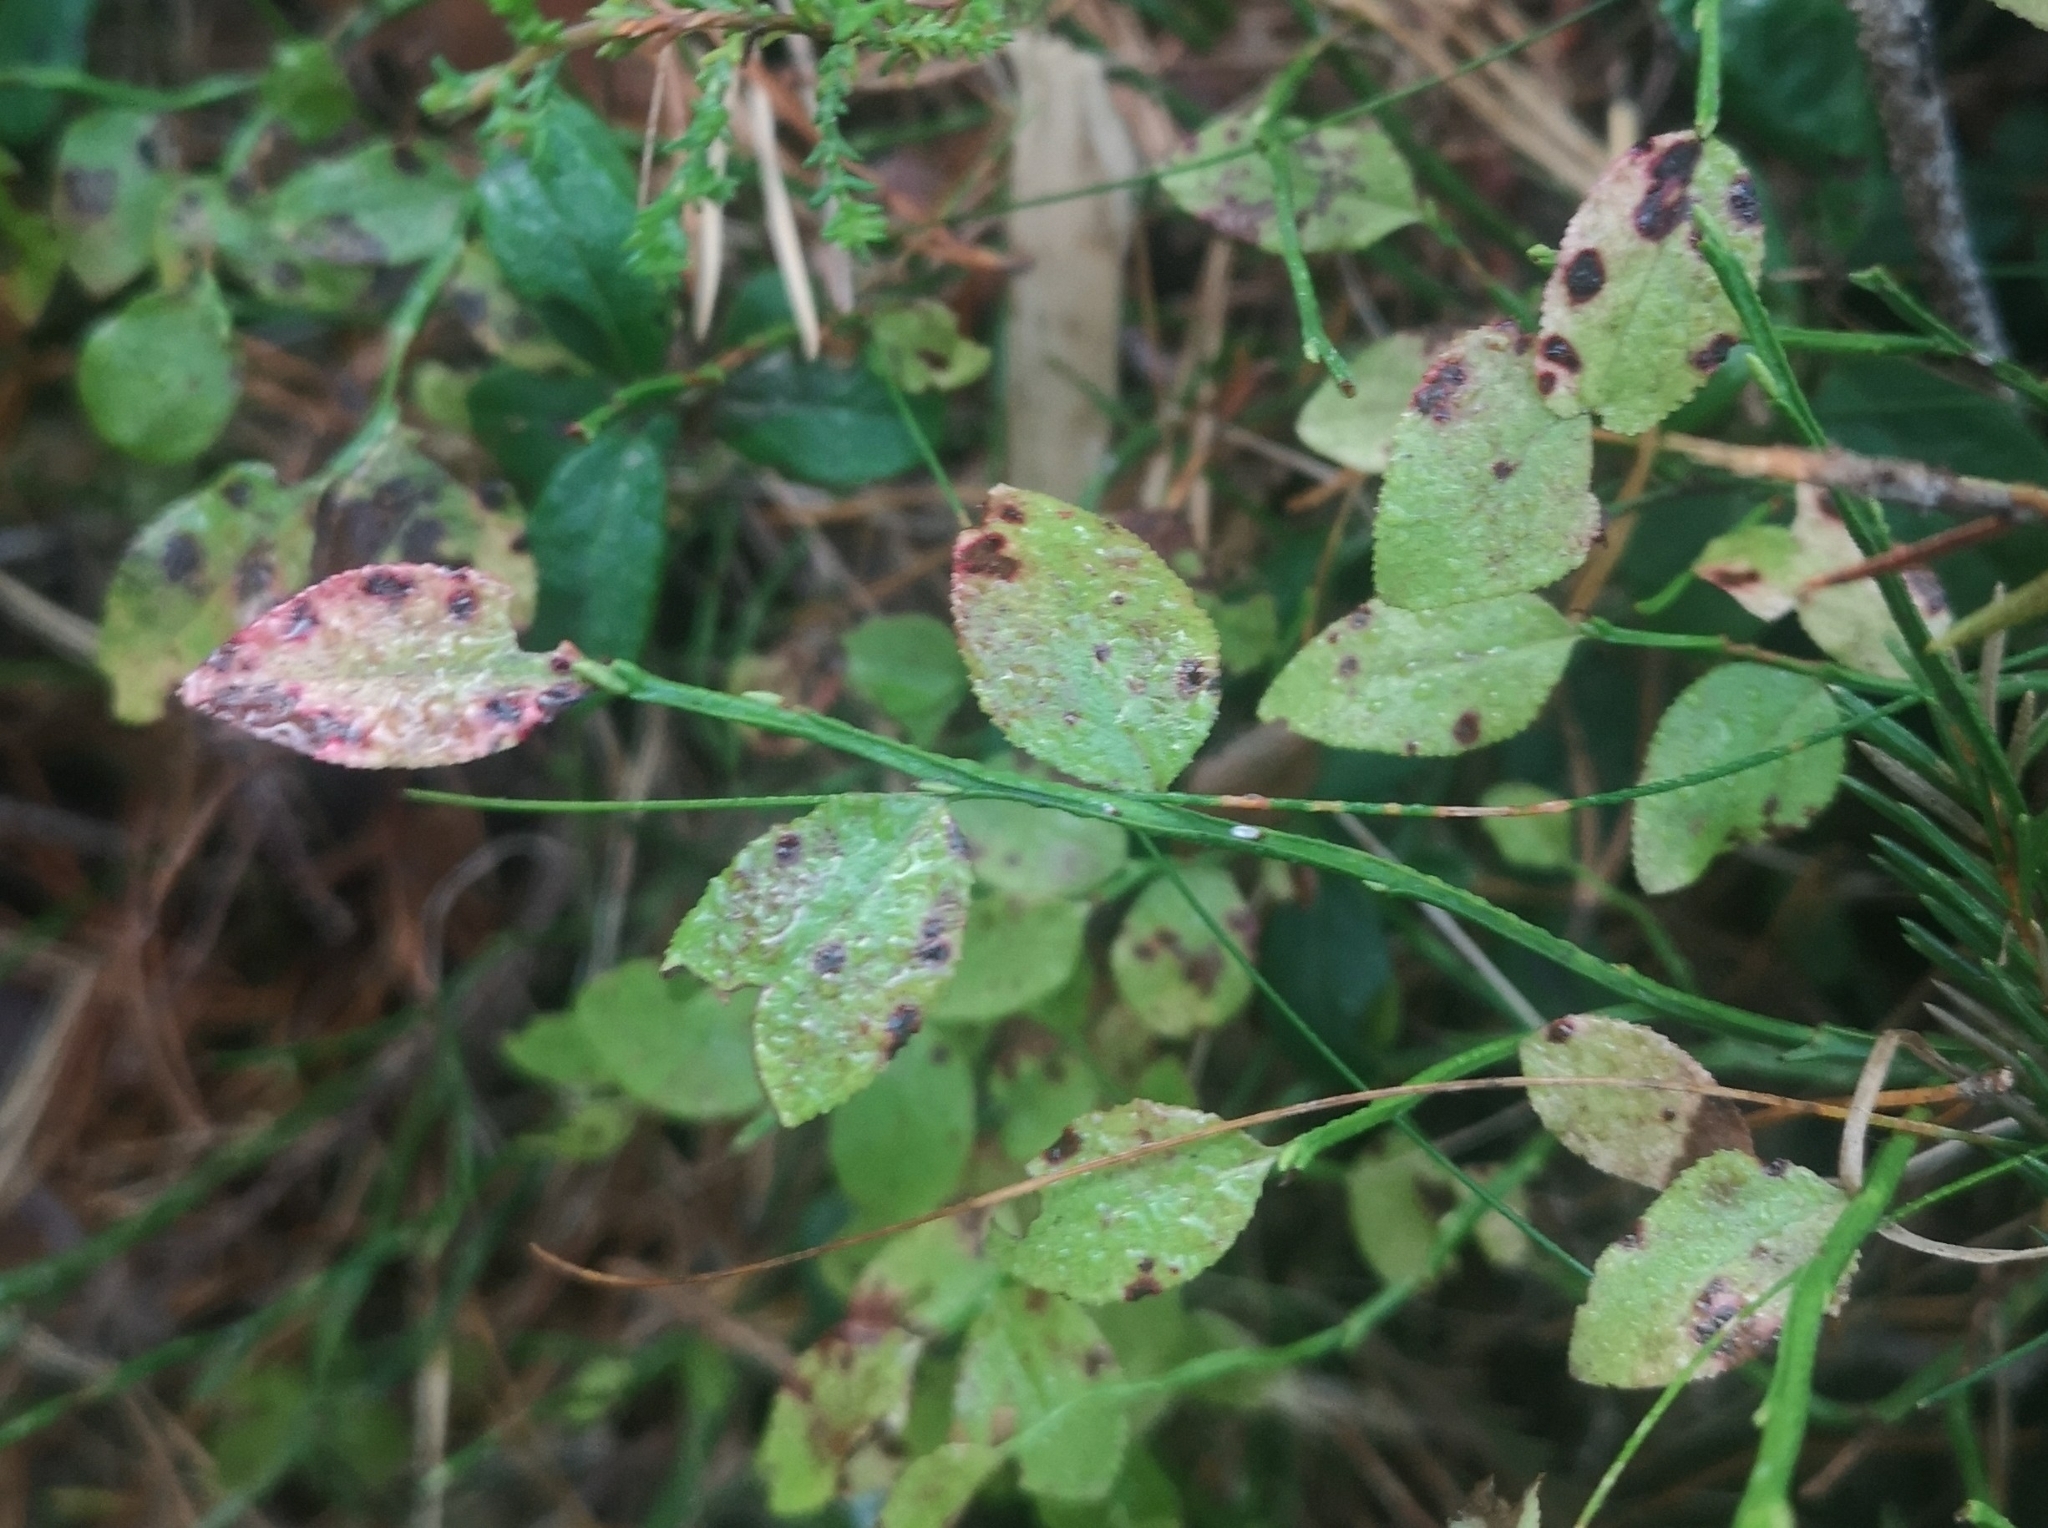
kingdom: Plantae
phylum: Tracheophyta
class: Magnoliopsida
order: Ericales
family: Ericaceae
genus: Vaccinium
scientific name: Vaccinium myrtillus
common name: Bilberry
